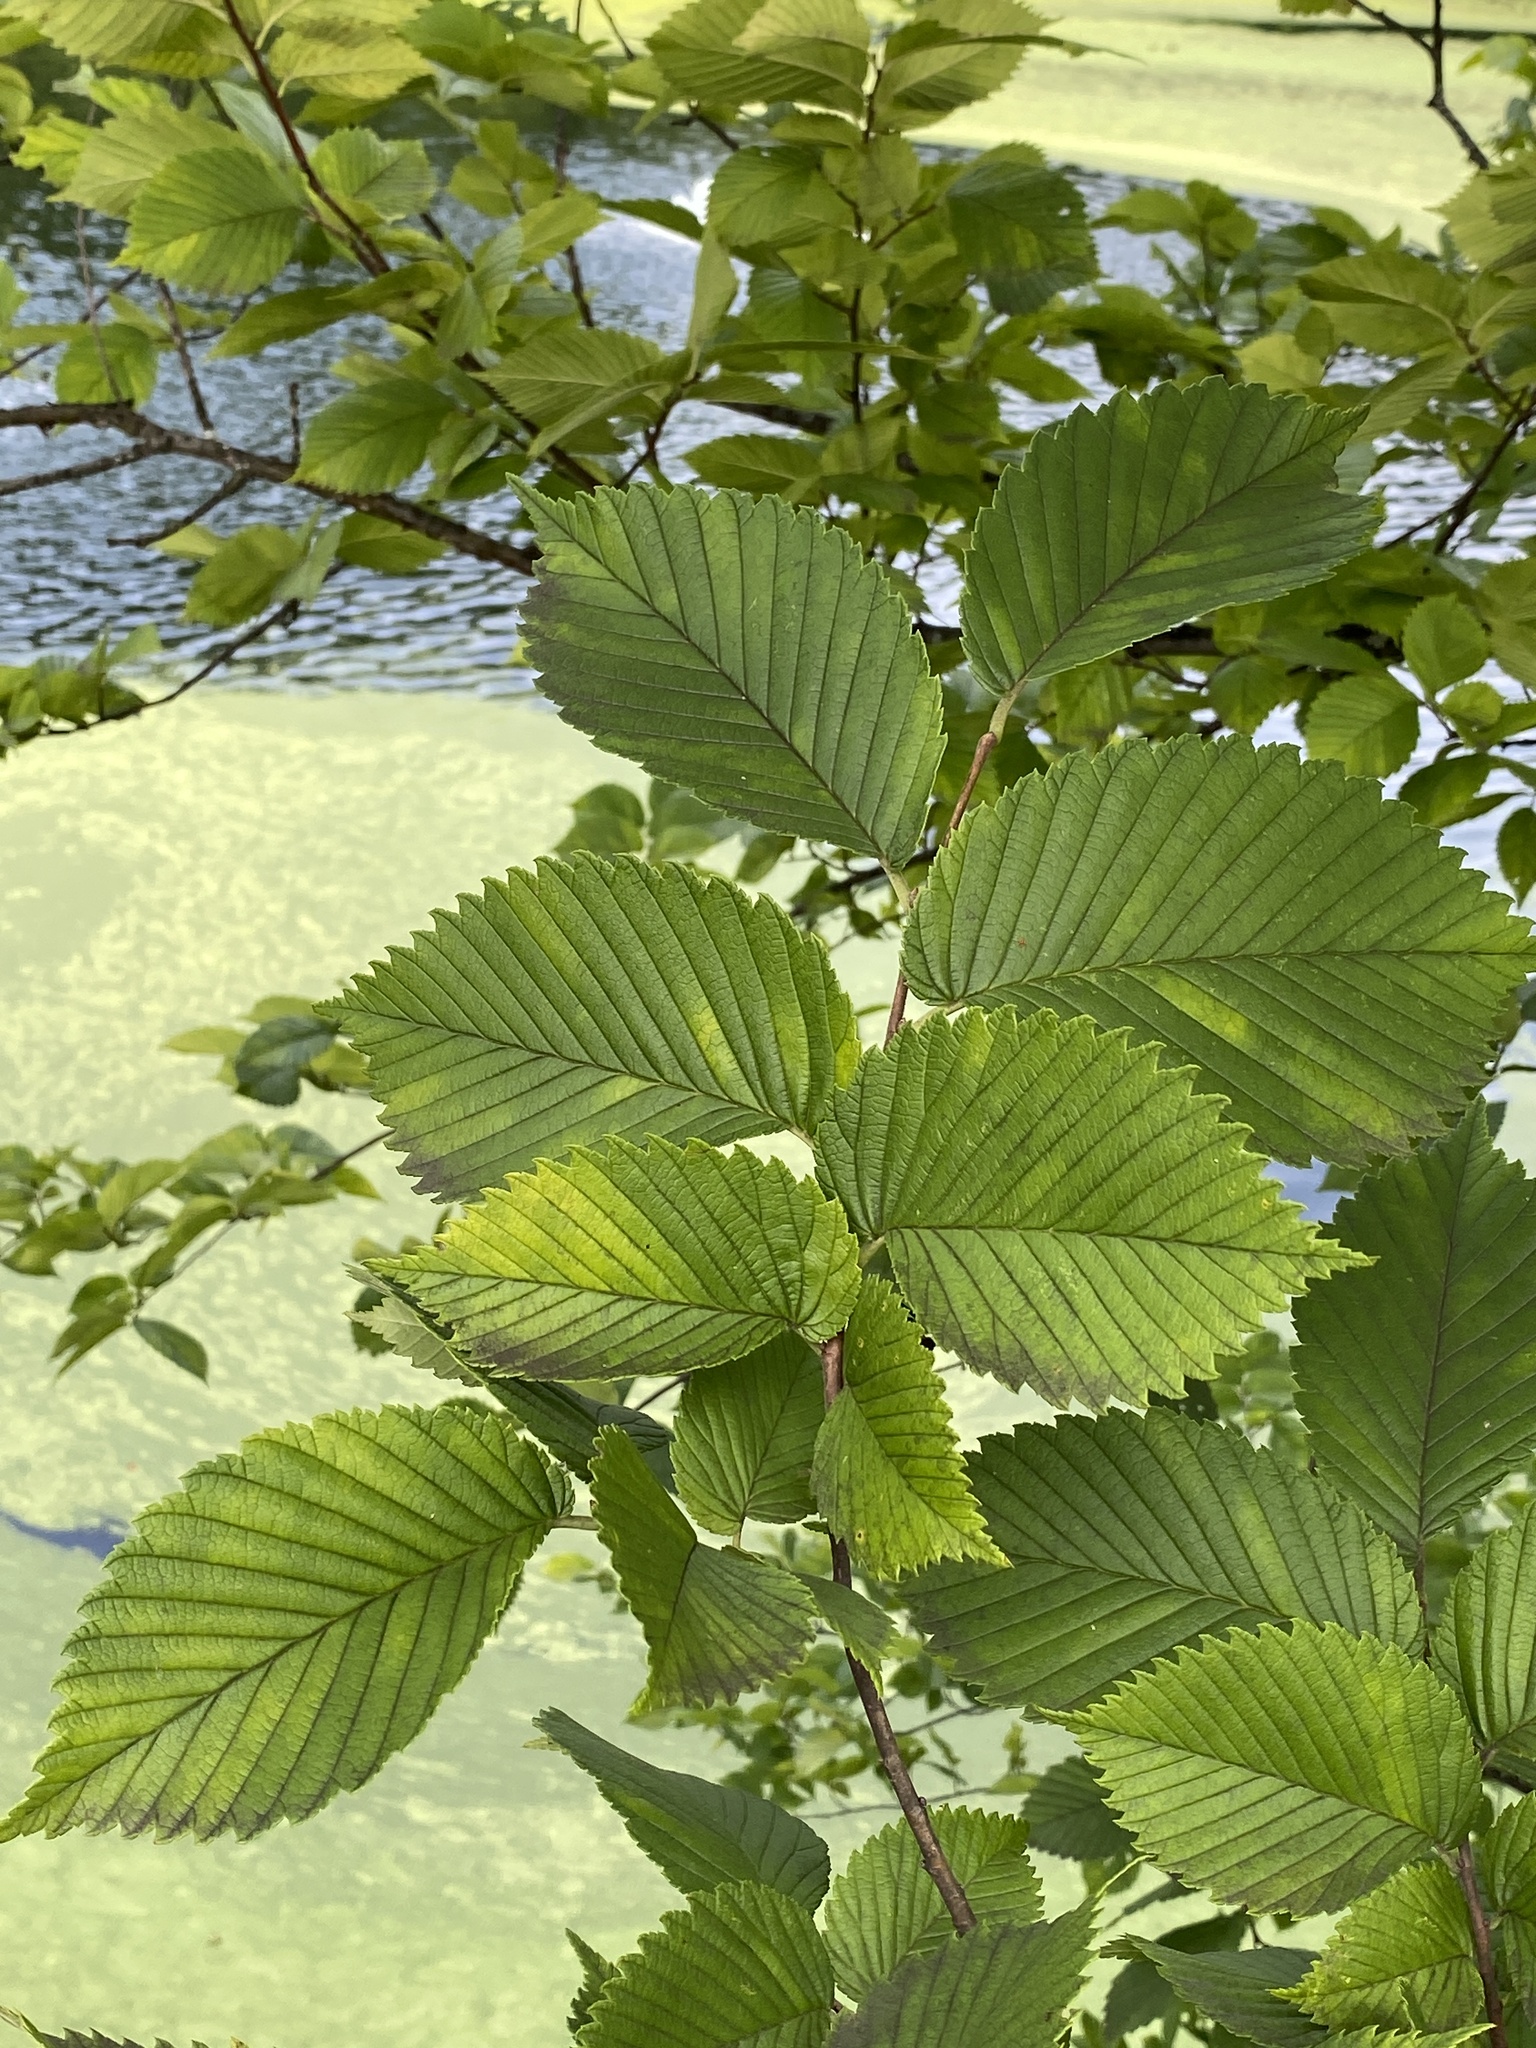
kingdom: Plantae
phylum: Tracheophyta
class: Magnoliopsida
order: Rosales
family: Ulmaceae
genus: Ulmus
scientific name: Ulmus americana
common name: American elm
